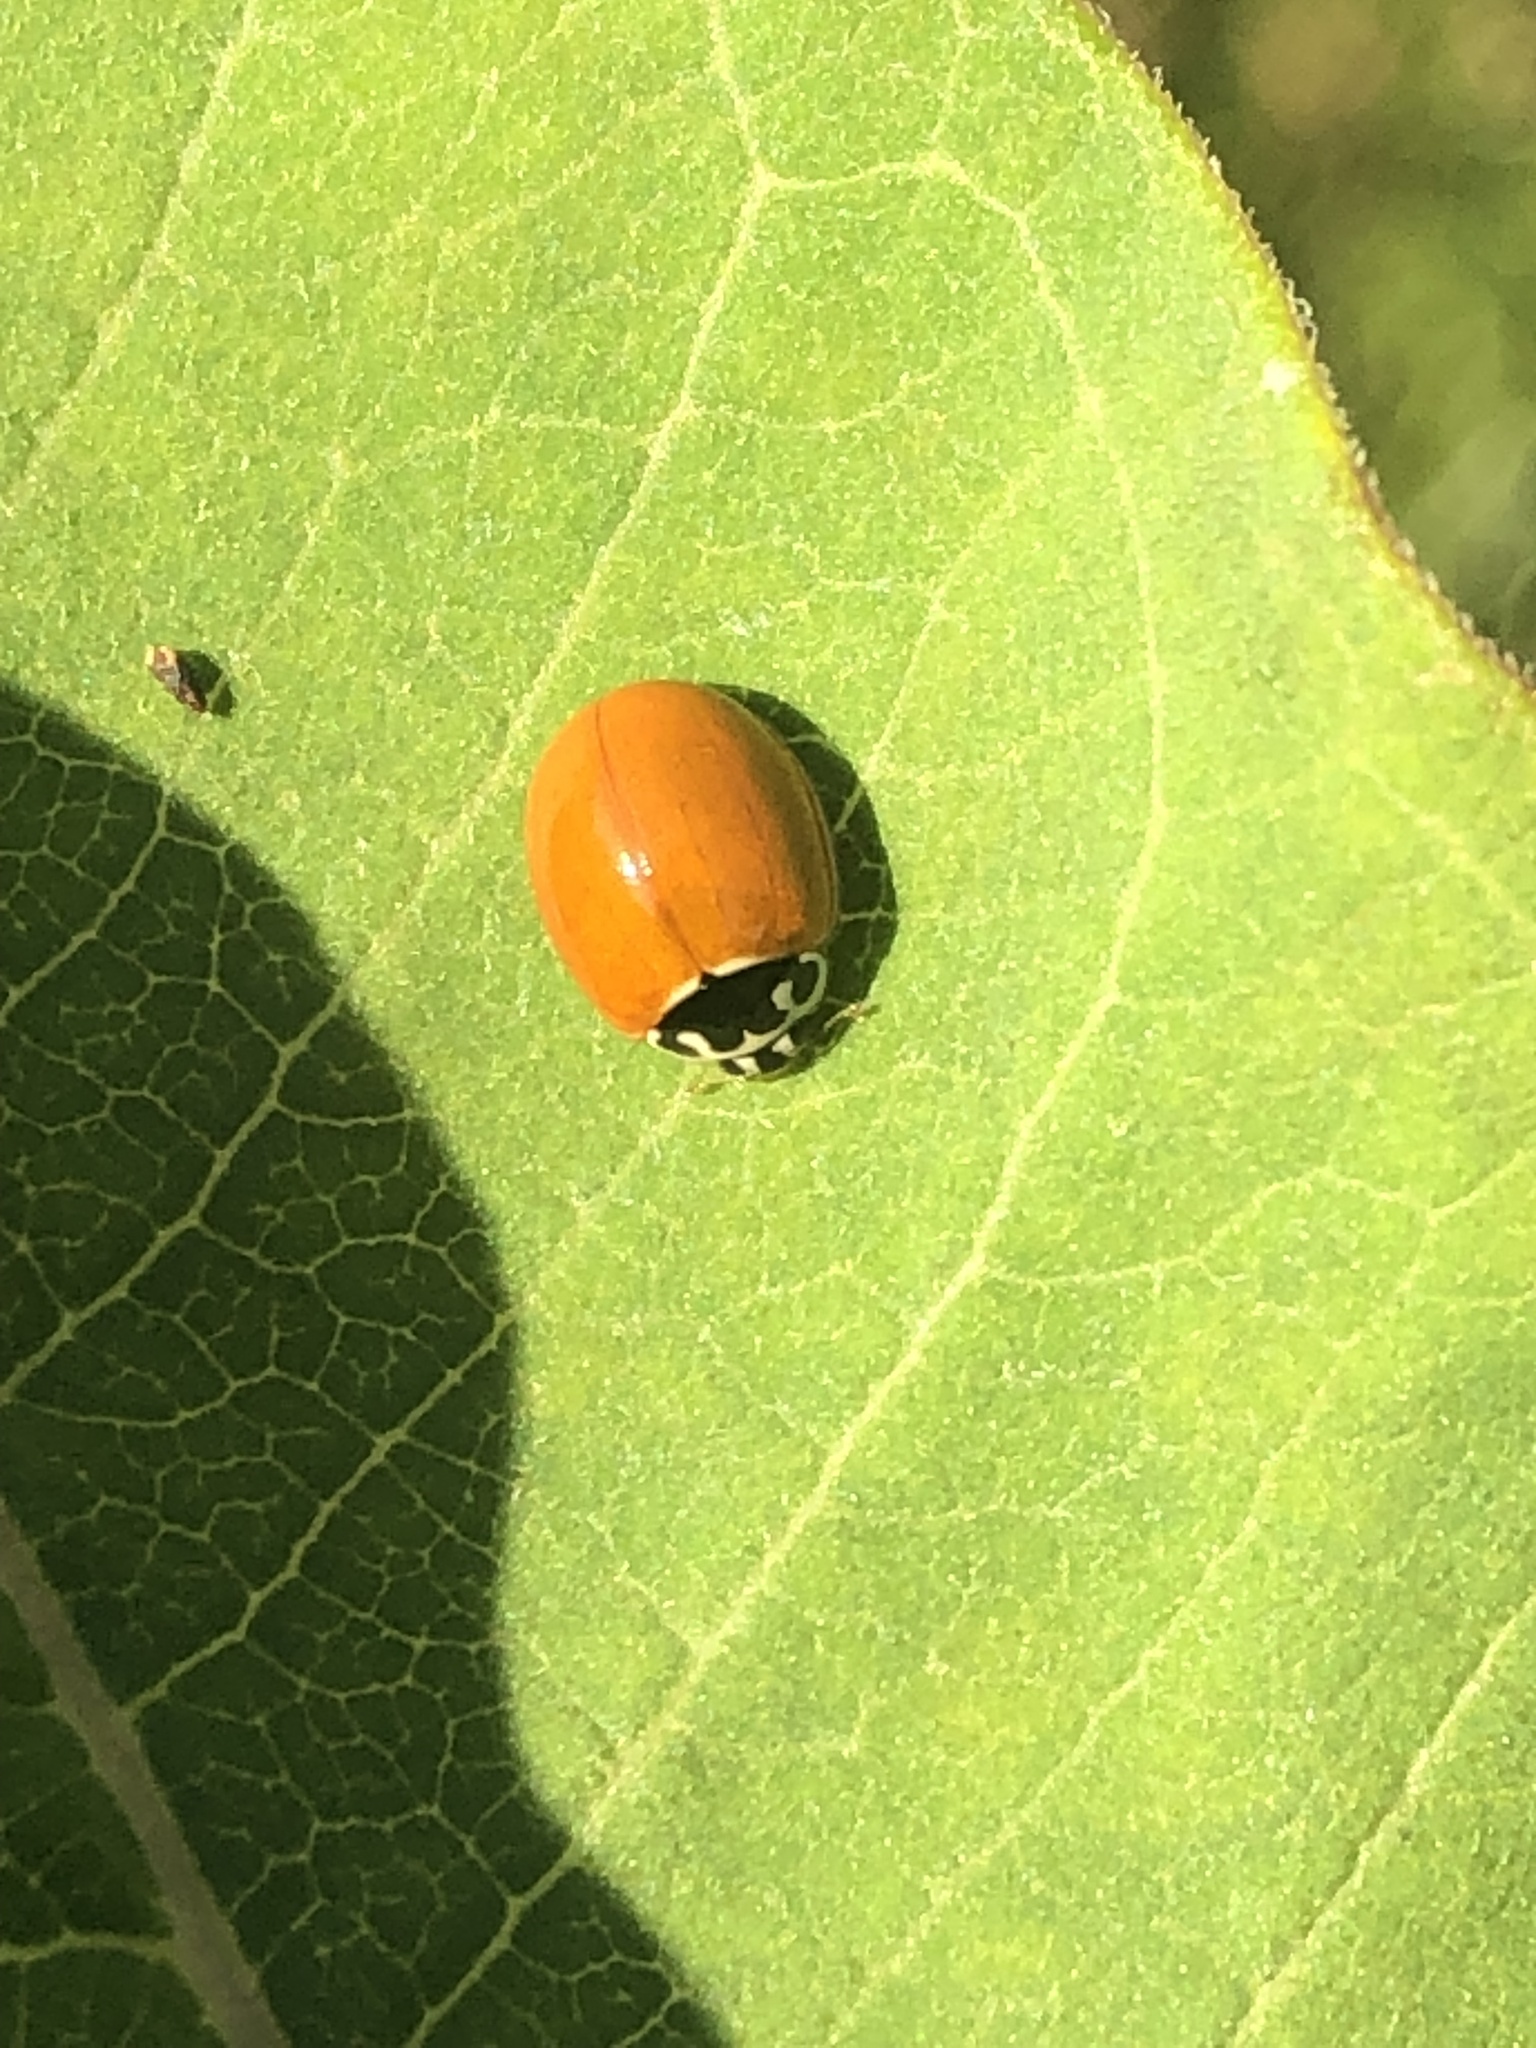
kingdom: Animalia
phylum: Arthropoda
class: Insecta
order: Coleoptera
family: Coccinellidae
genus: Cycloneda
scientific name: Cycloneda munda
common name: Polished lady beetle
